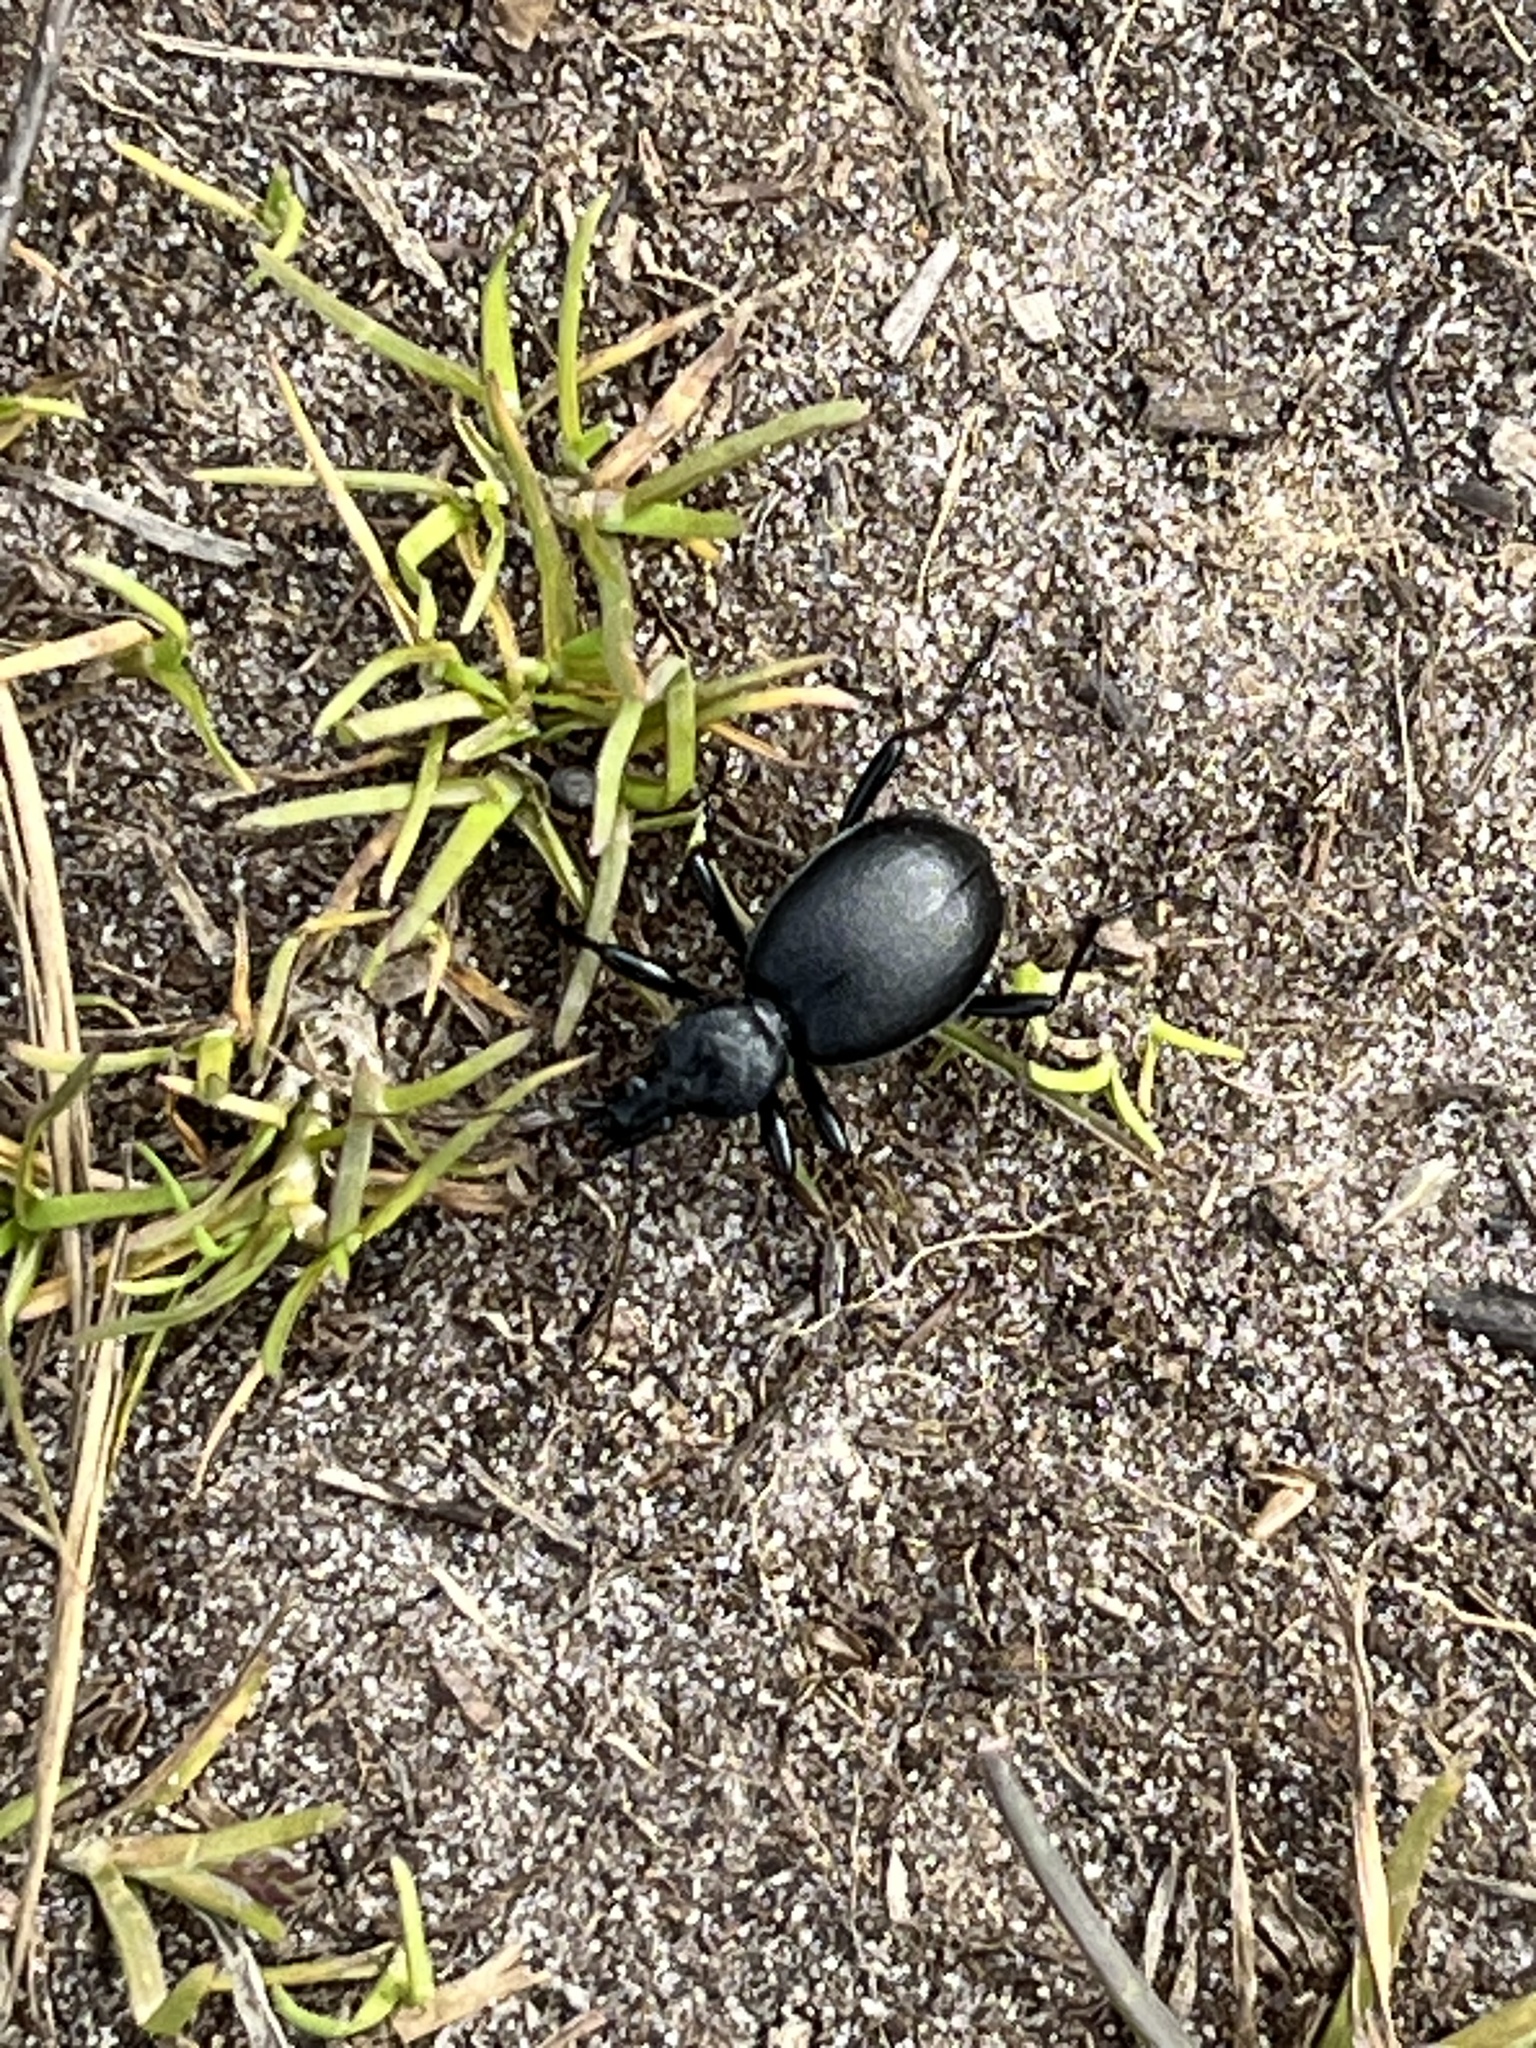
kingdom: Animalia
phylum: Arthropoda
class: Insecta
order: Coleoptera
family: Carabidae
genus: Cychrus
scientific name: Cychrus caraboides
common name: Snail hunter
